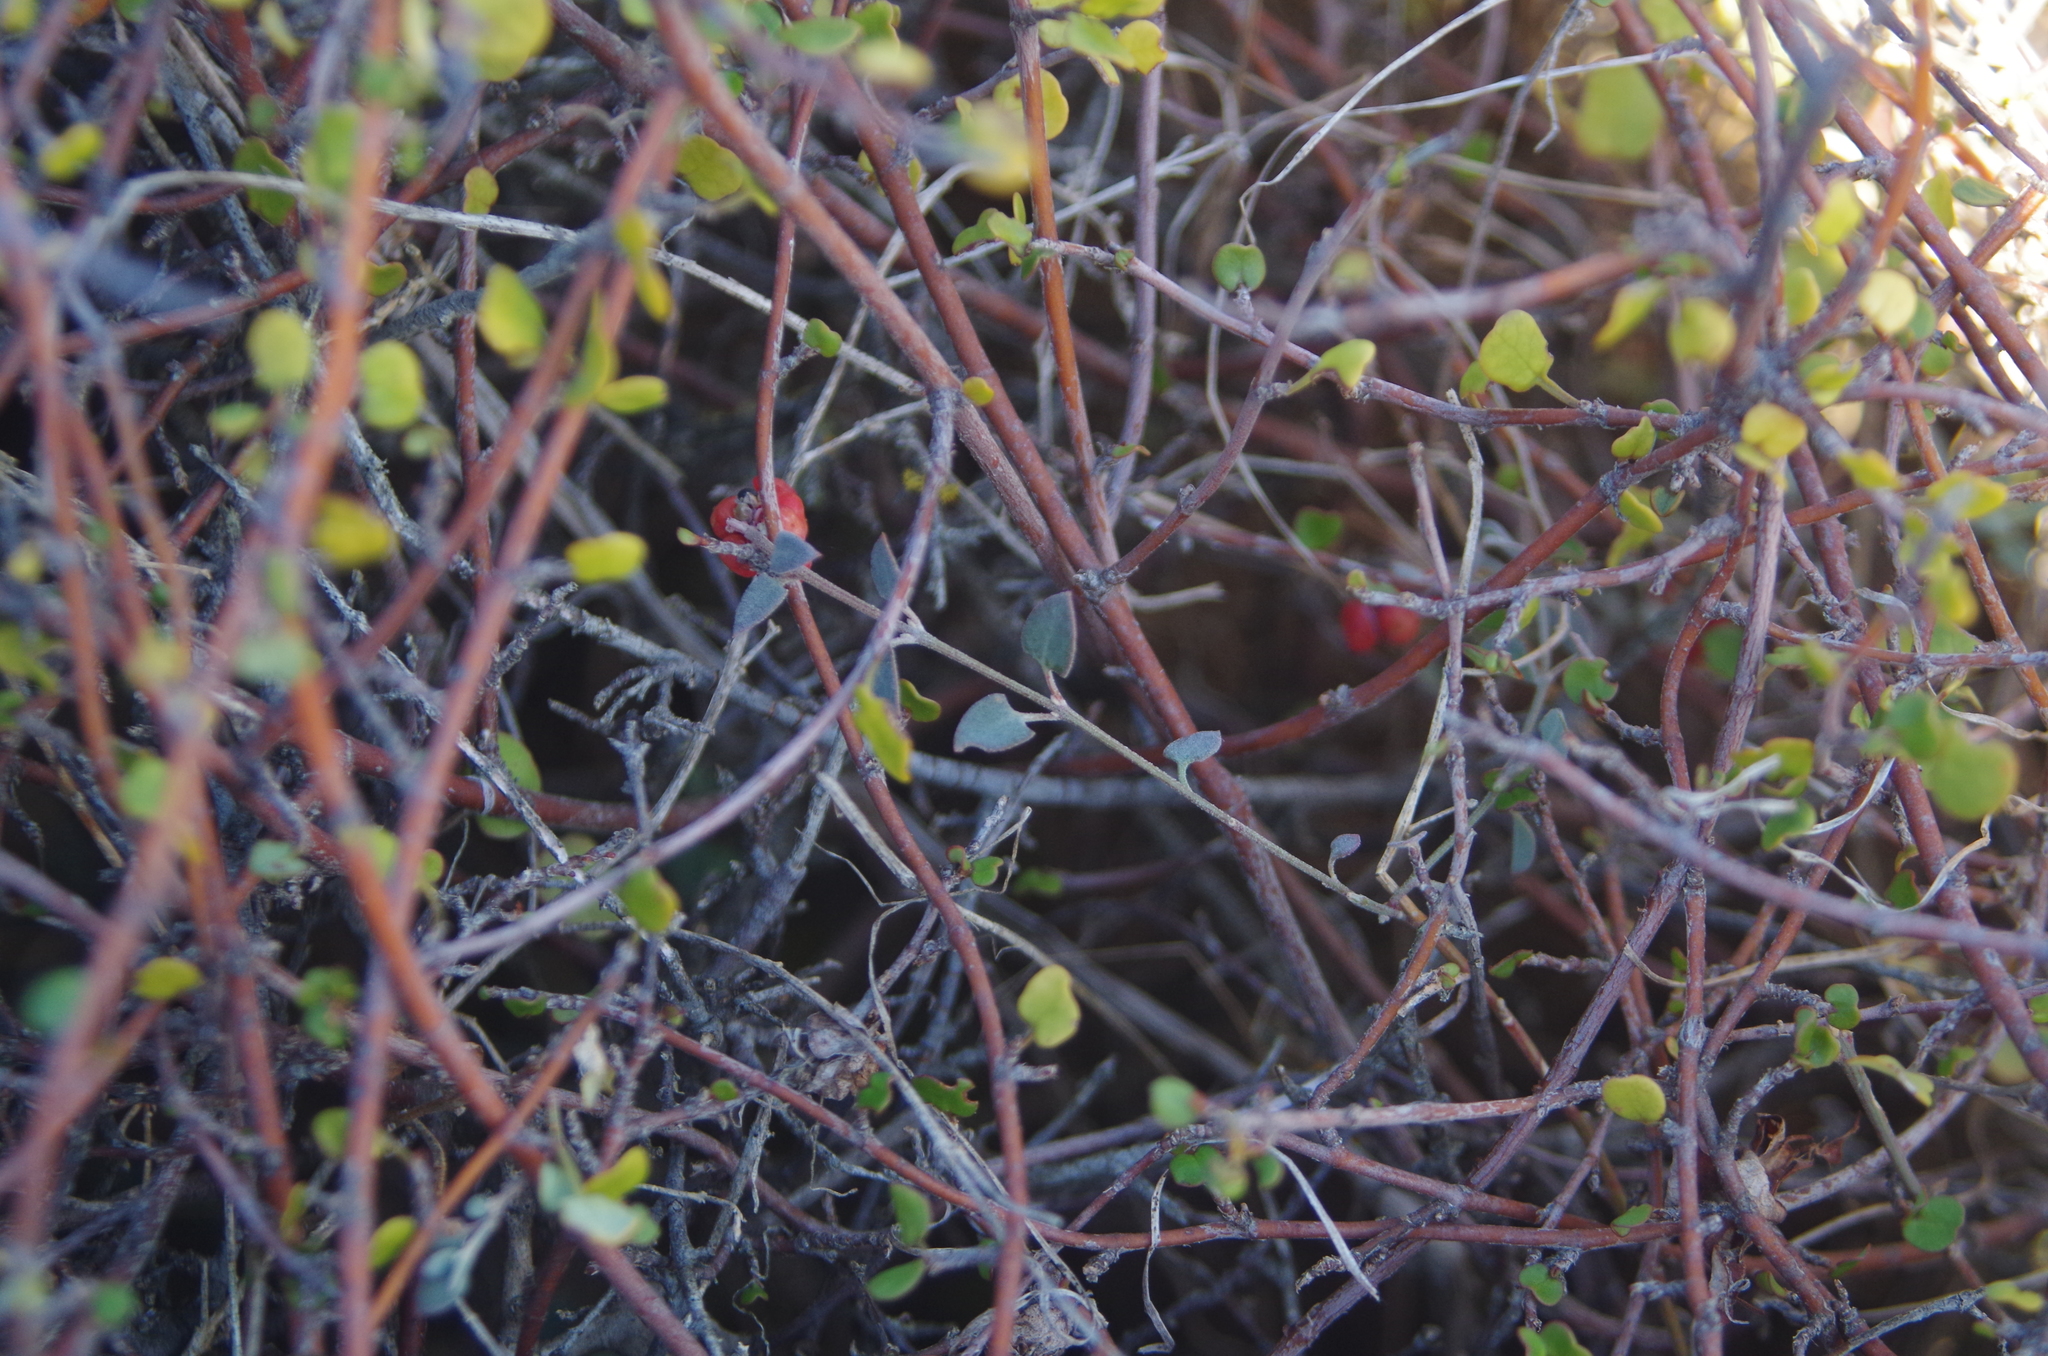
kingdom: Plantae
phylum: Tracheophyta
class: Magnoliopsida
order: Caryophyllales
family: Amaranthaceae
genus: Chenopodium
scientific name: Chenopodium triandrum
